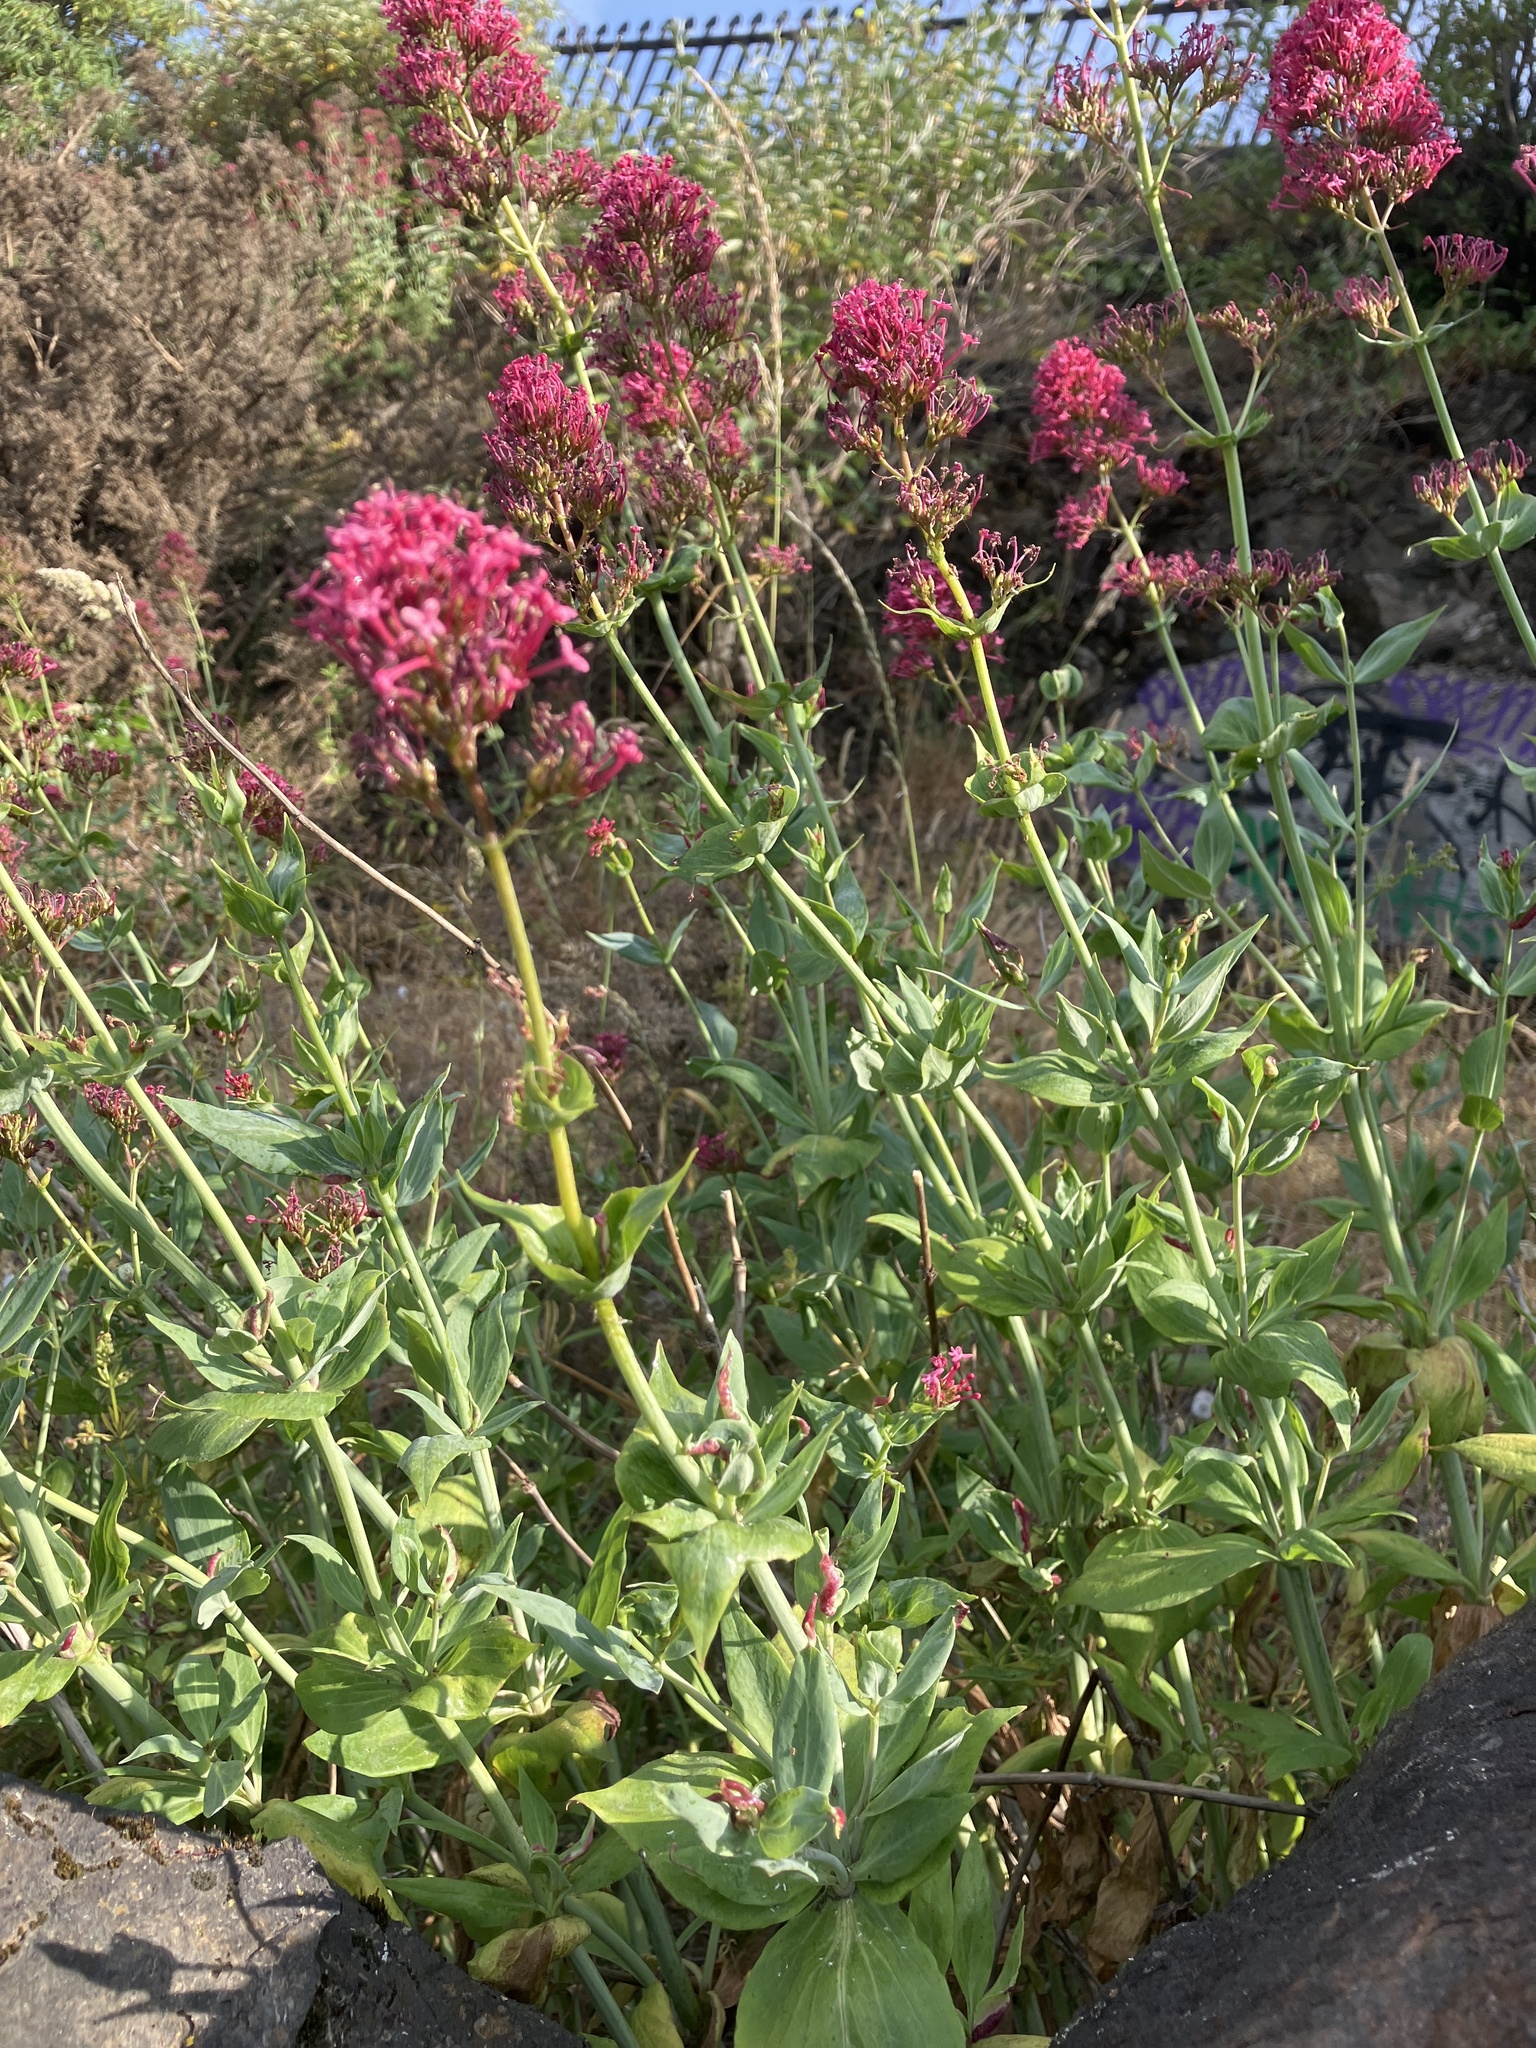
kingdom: Plantae
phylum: Tracheophyta
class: Magnoliopsida
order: Dipsacales
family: Caprifoliaceae
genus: Centranthus
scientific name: Centranthus ruber
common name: Red valerian
